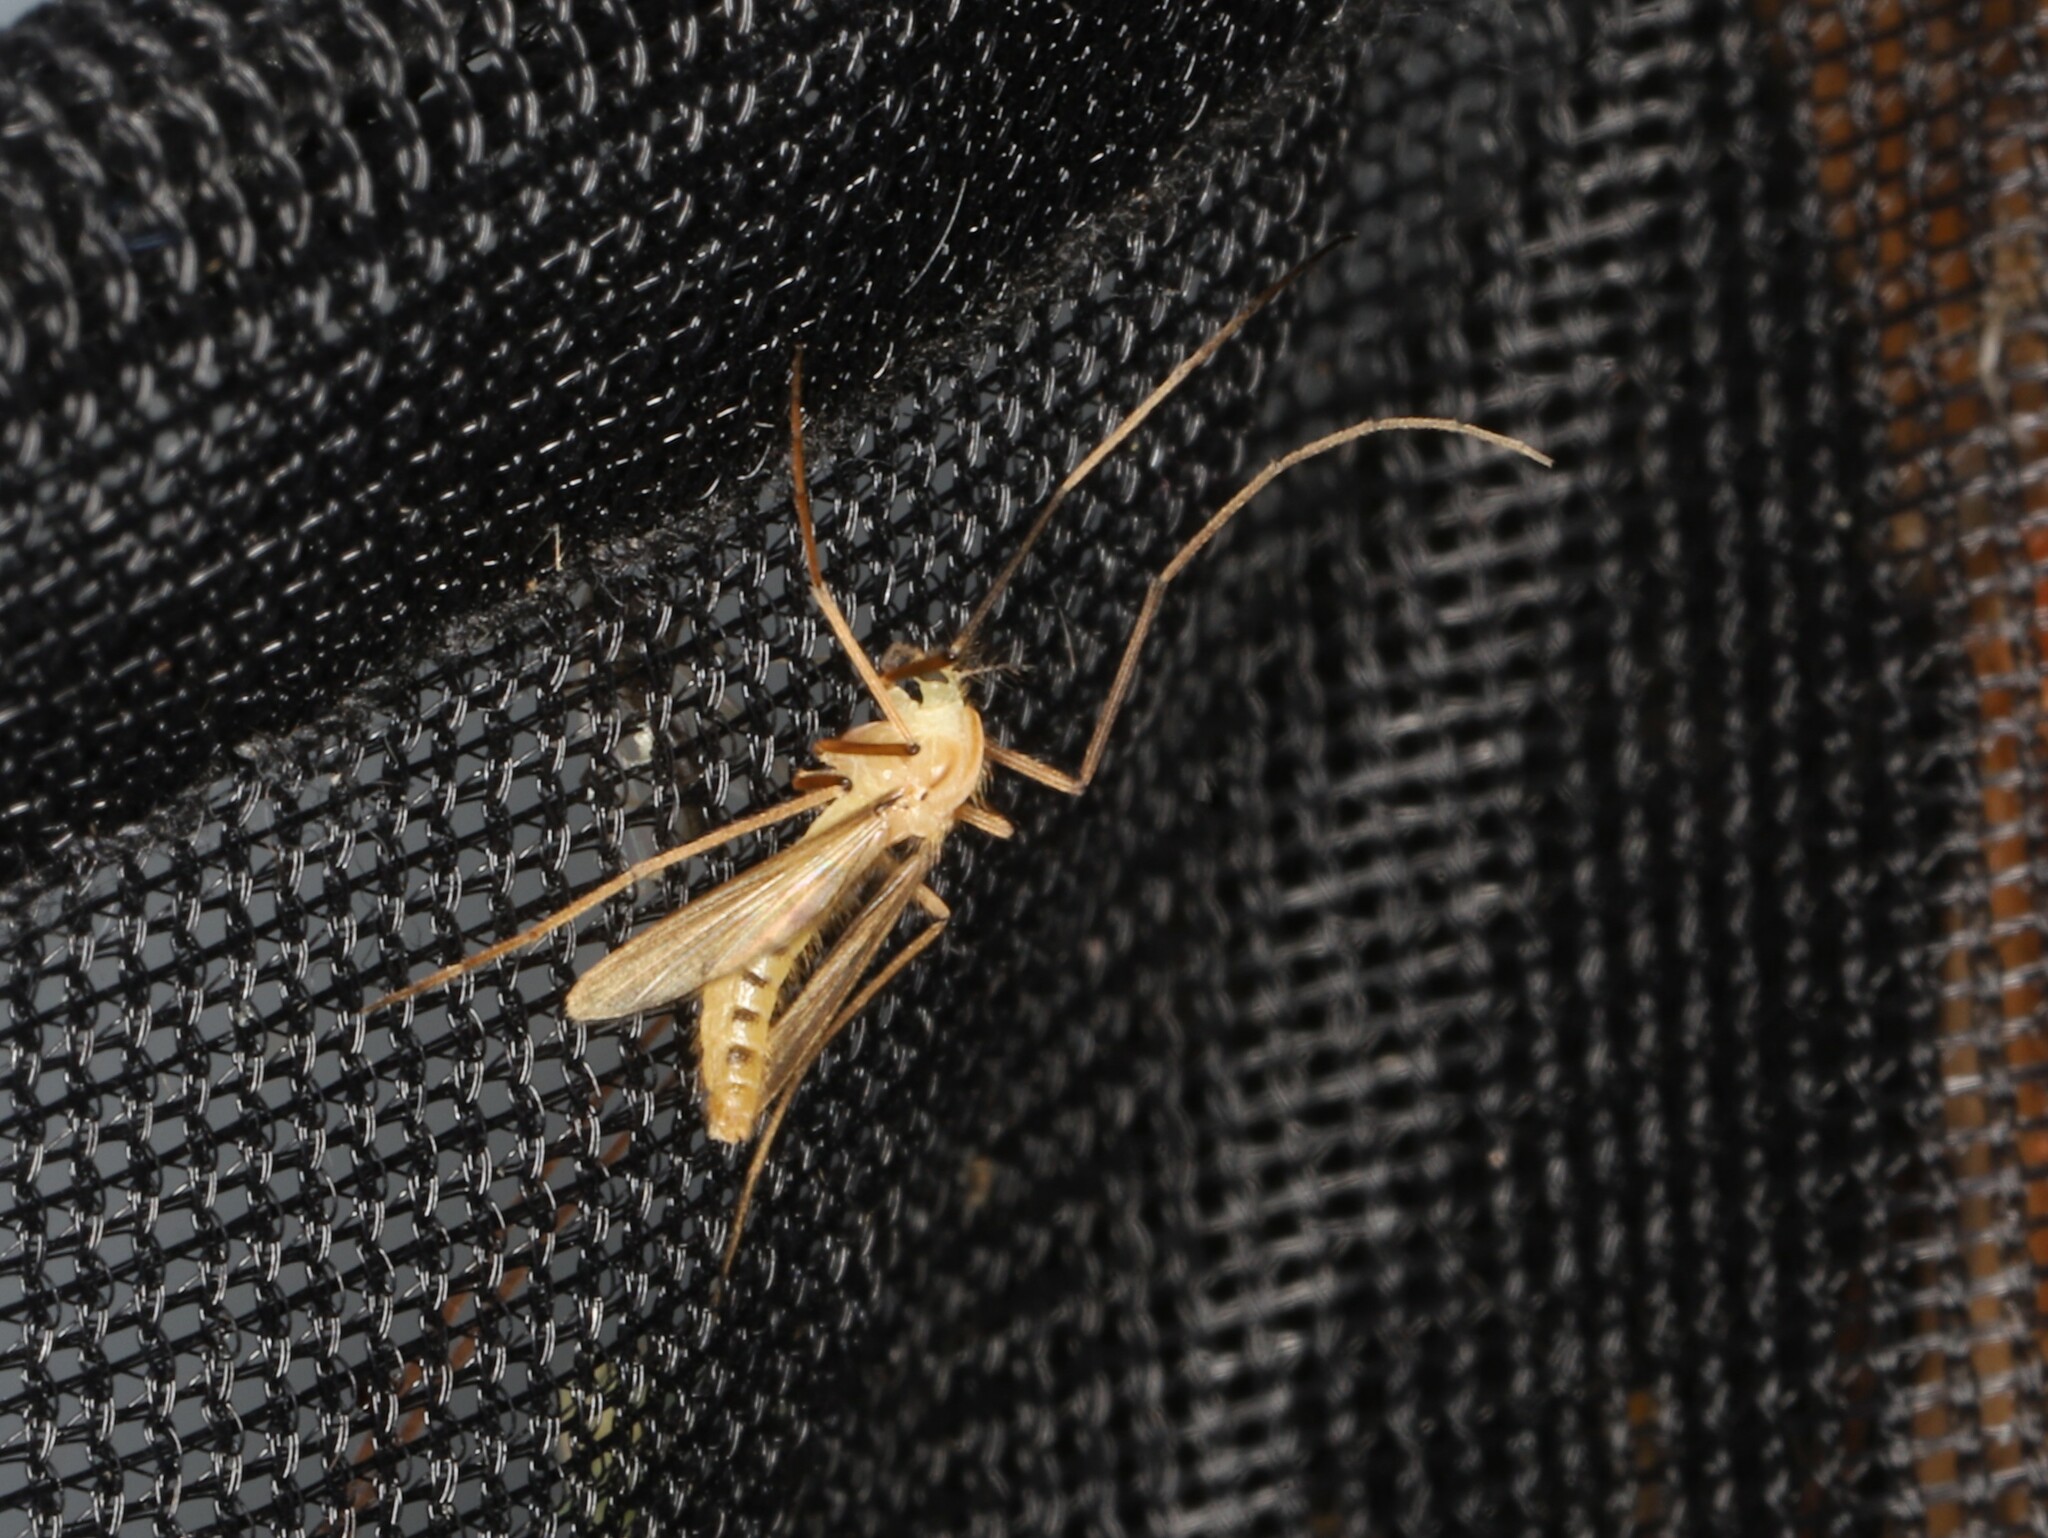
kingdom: Animalia
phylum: Arthropoda
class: Insecta
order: Diptera
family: Chironomidae
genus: Xylotopus
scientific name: Xylotopus par
